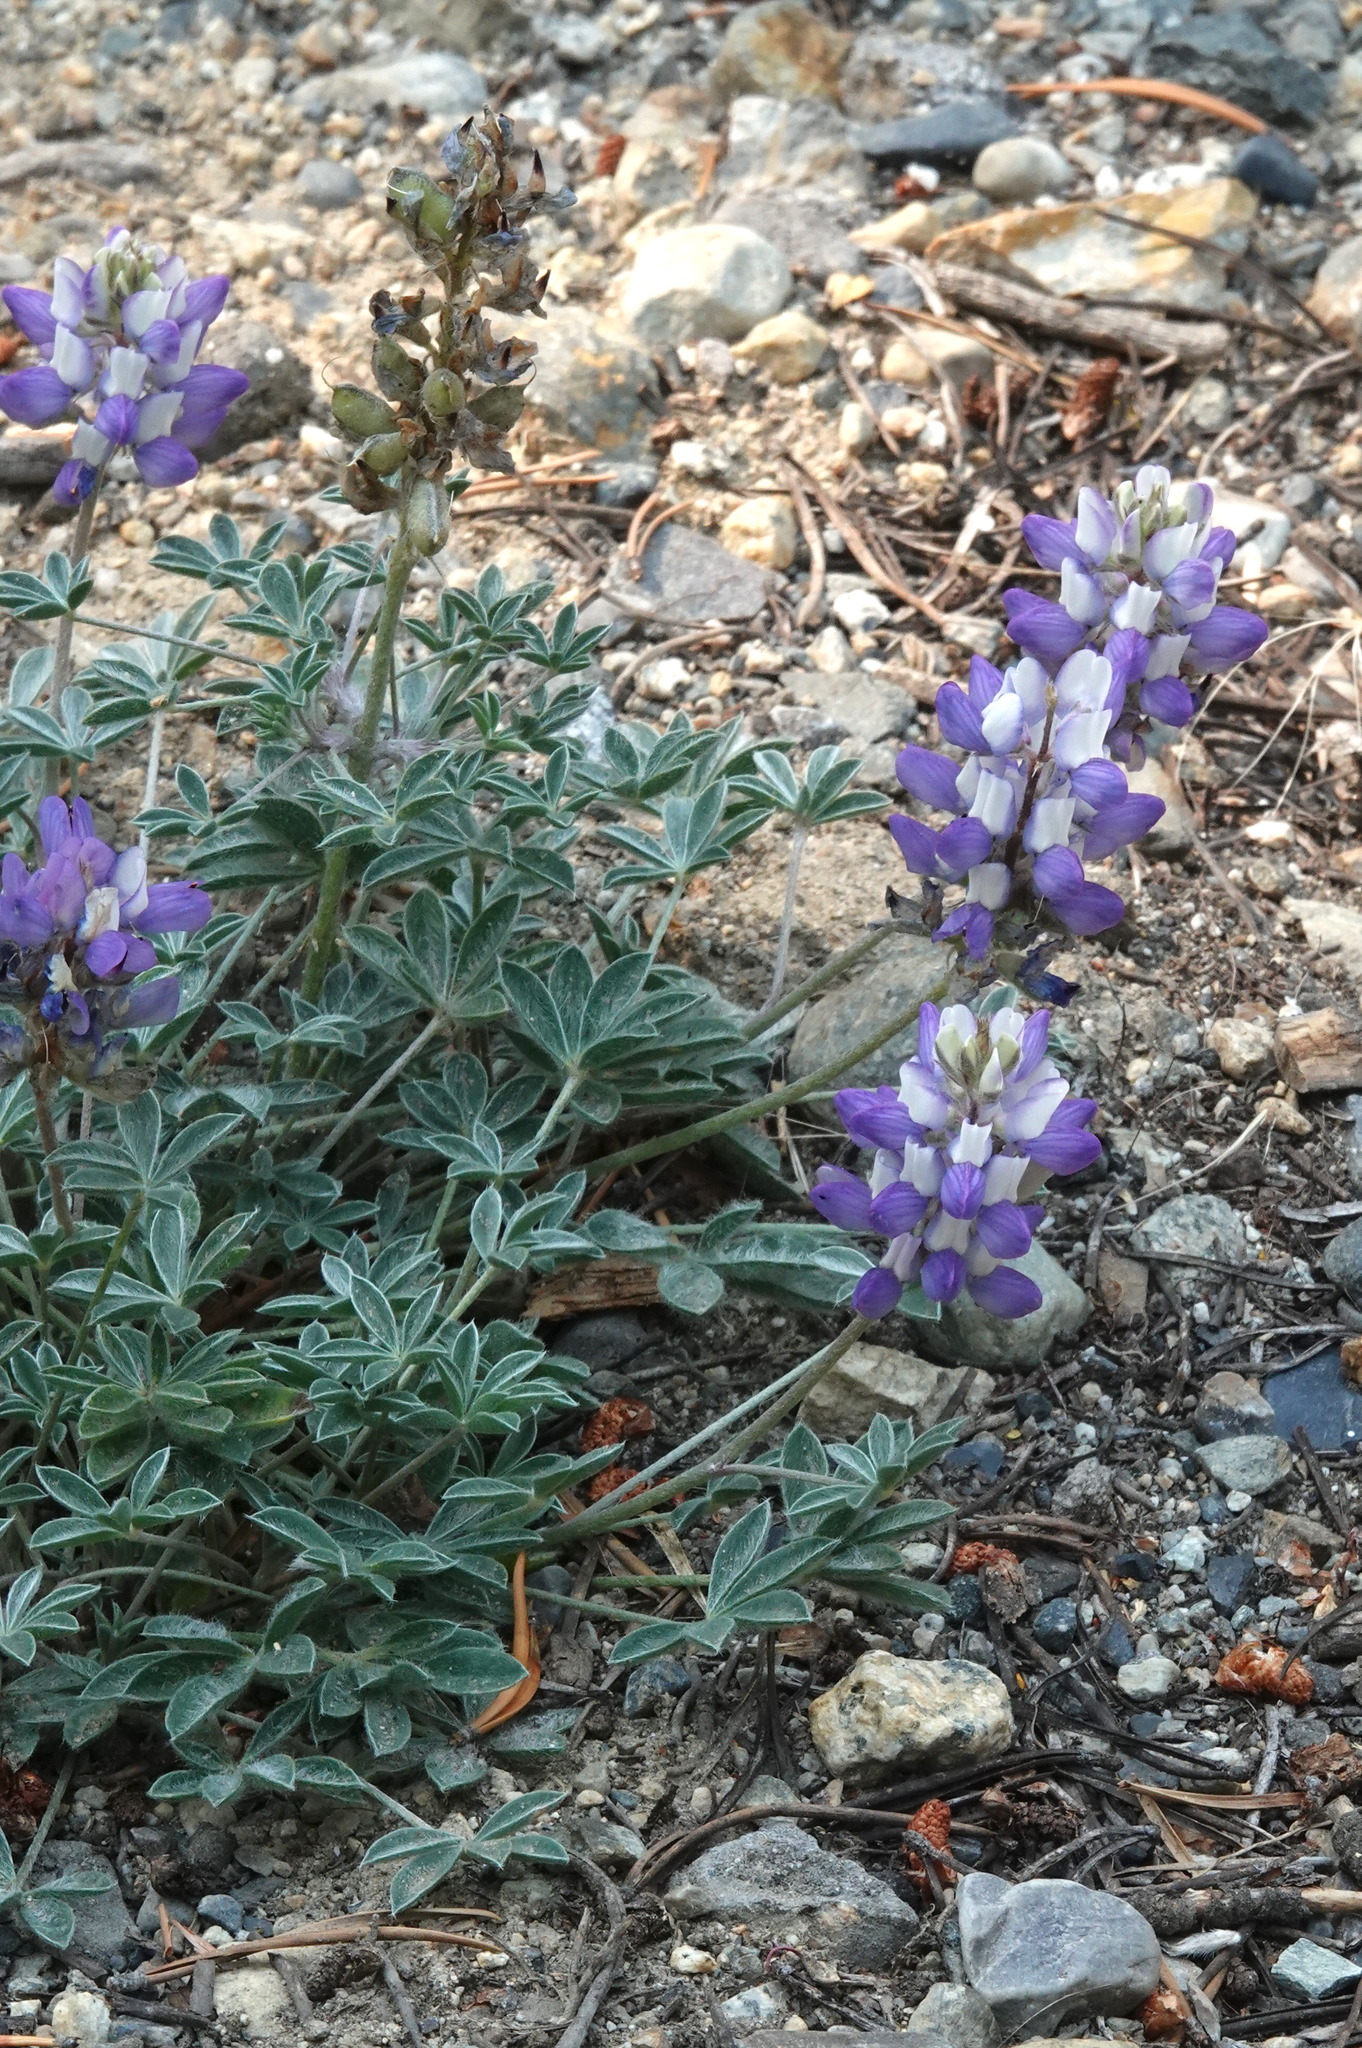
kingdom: Plantae
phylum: Tracheophyta
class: Magnoliopsida
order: Fabales
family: Fabaceae
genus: Lupinus
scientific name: Lupinus sellulus
